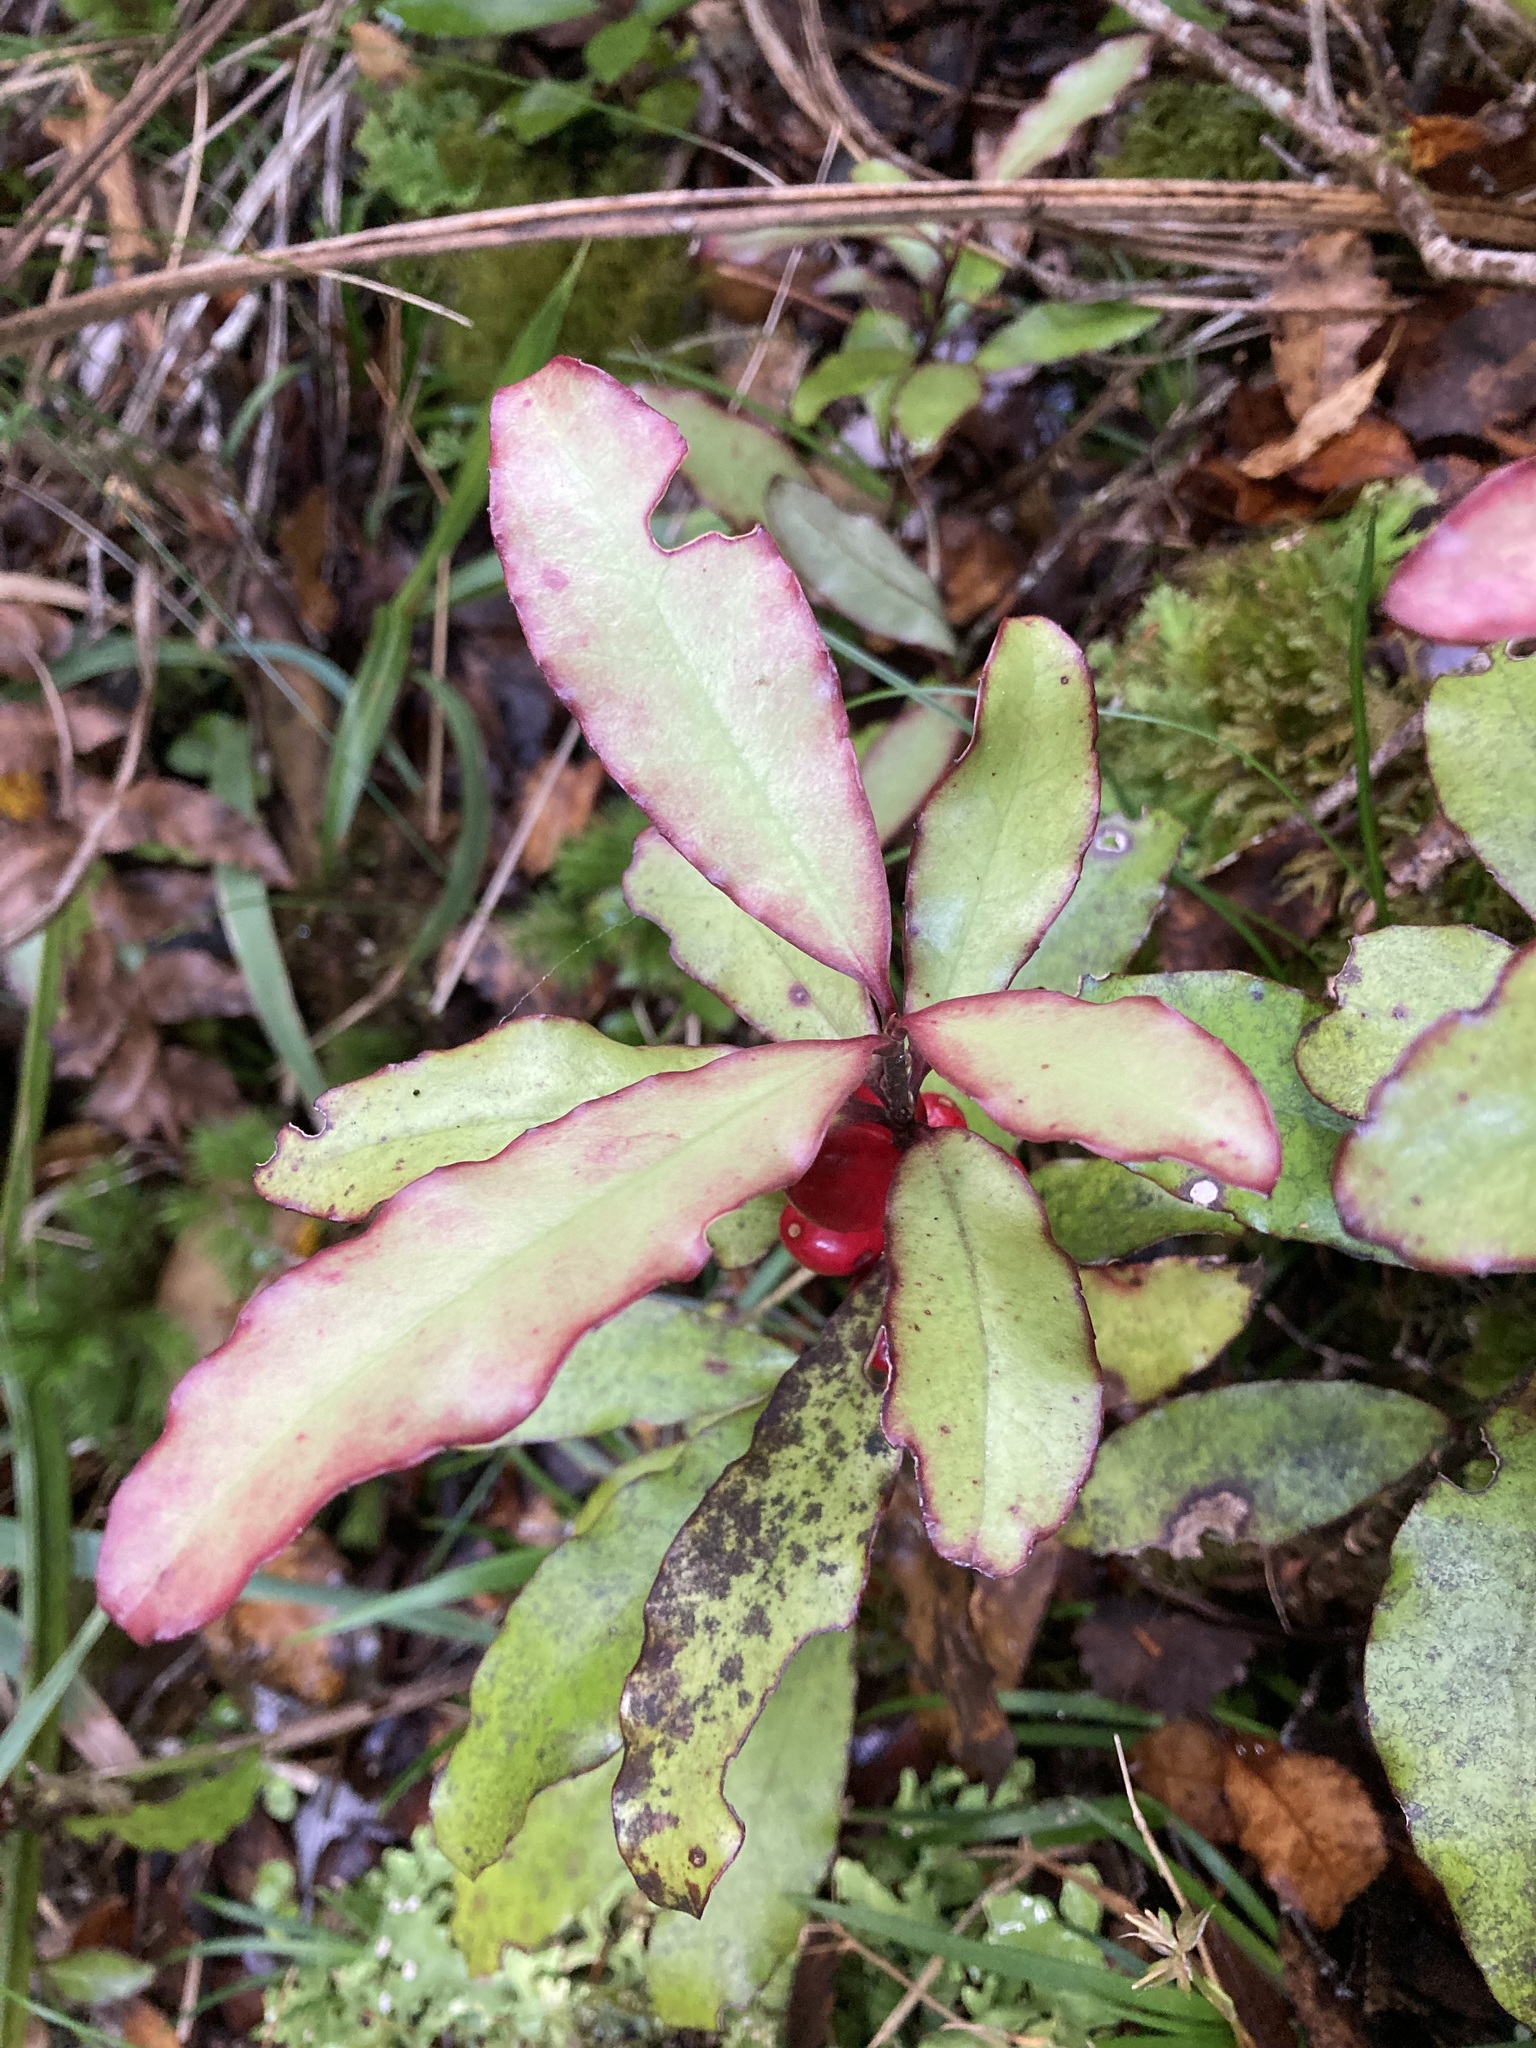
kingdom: Plantae
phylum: Tracheophyta
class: Magnoliopsida
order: Asterales
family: Alseuosmiaceae
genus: Alseuosmia
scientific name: Alseuosmia pusilla
